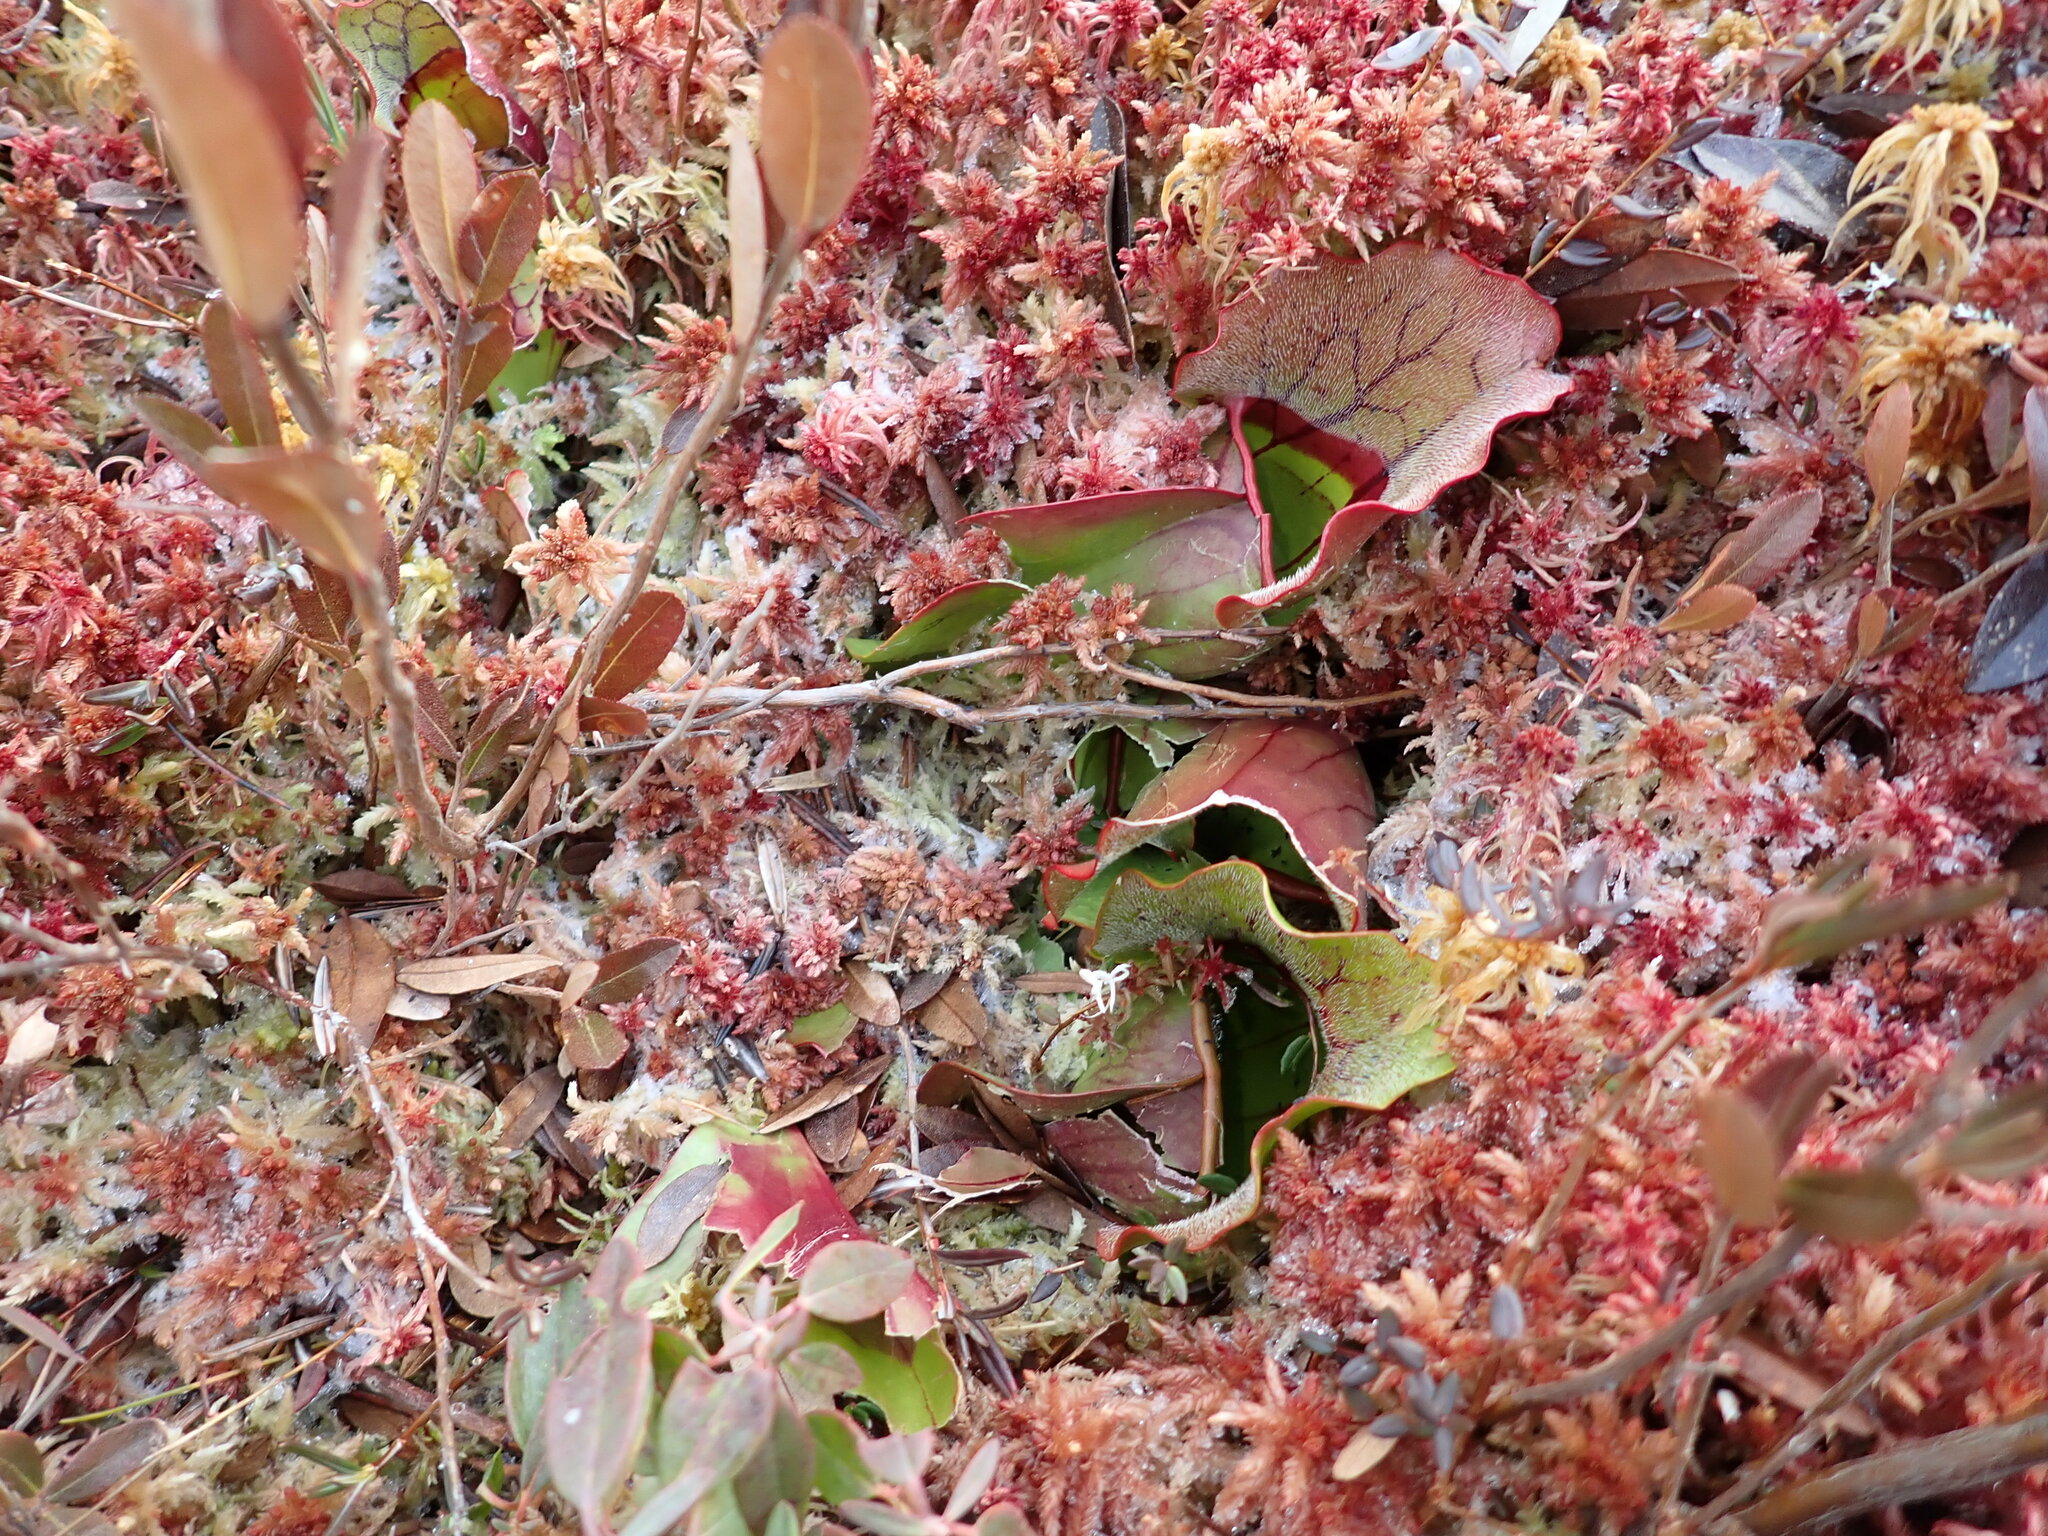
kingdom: Plantae
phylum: Tracheophyta
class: Magnoliopsida
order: Ericales
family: Sarraceniaceae
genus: Sarracenia
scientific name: Sarracenia purpurea
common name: Pitcherplant
